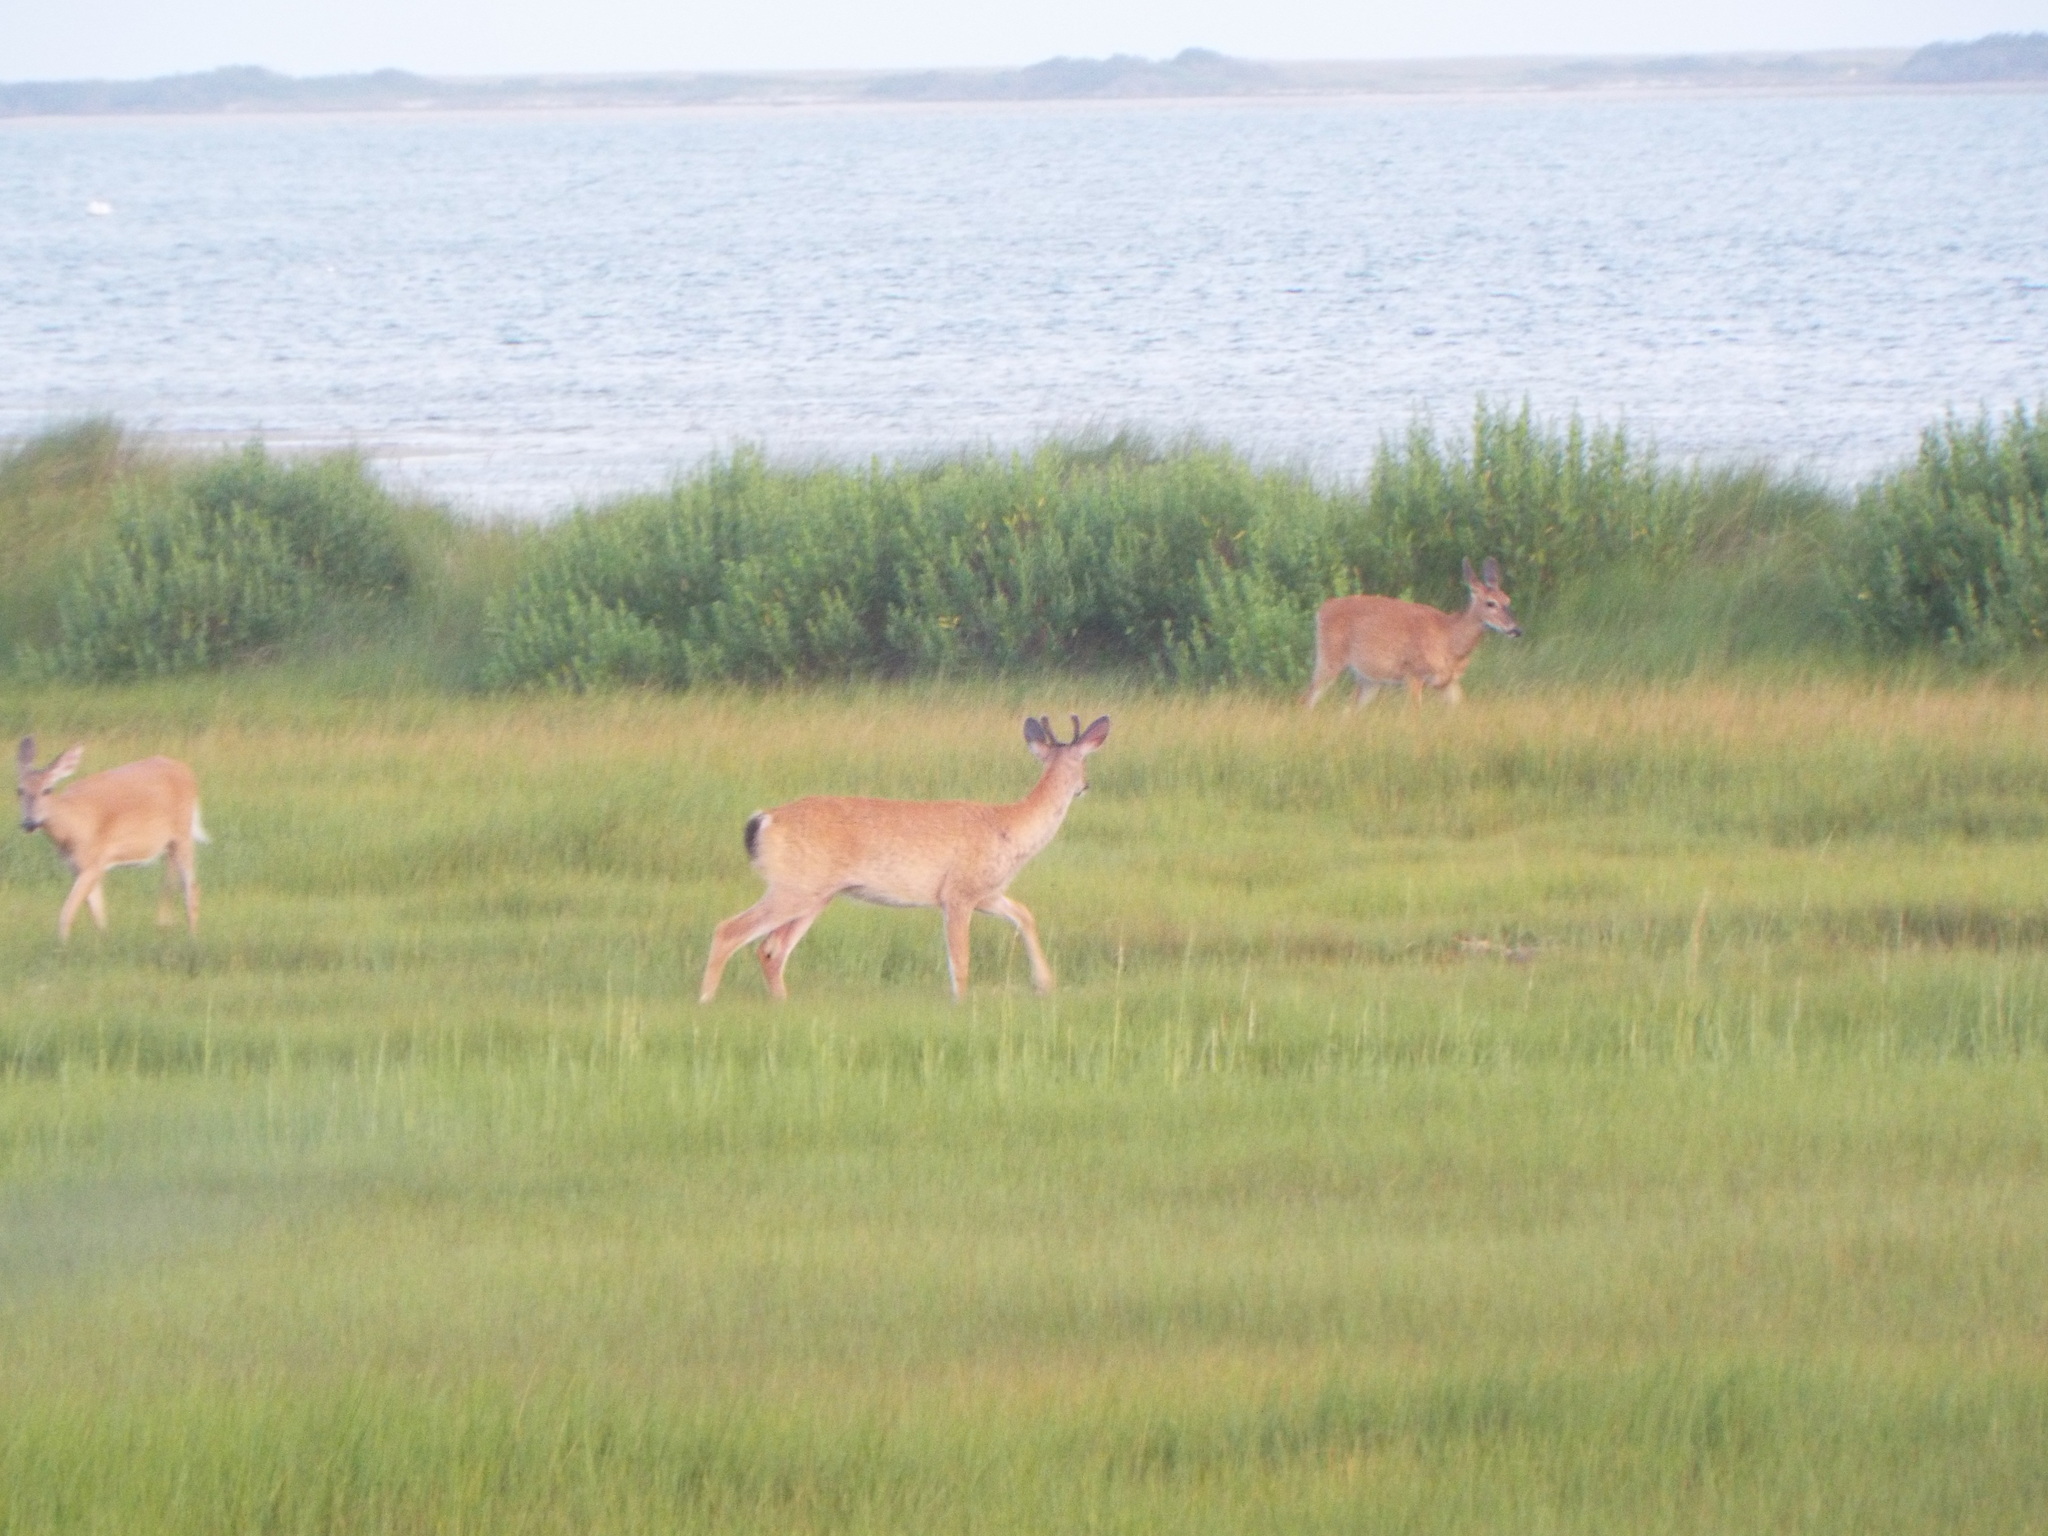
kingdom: Animalia
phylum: Chordata
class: Mammalia
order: Artiodactyla
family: Cervidae
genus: Odocoileus
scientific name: Odocoileus virginianus
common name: White-tailed deer
